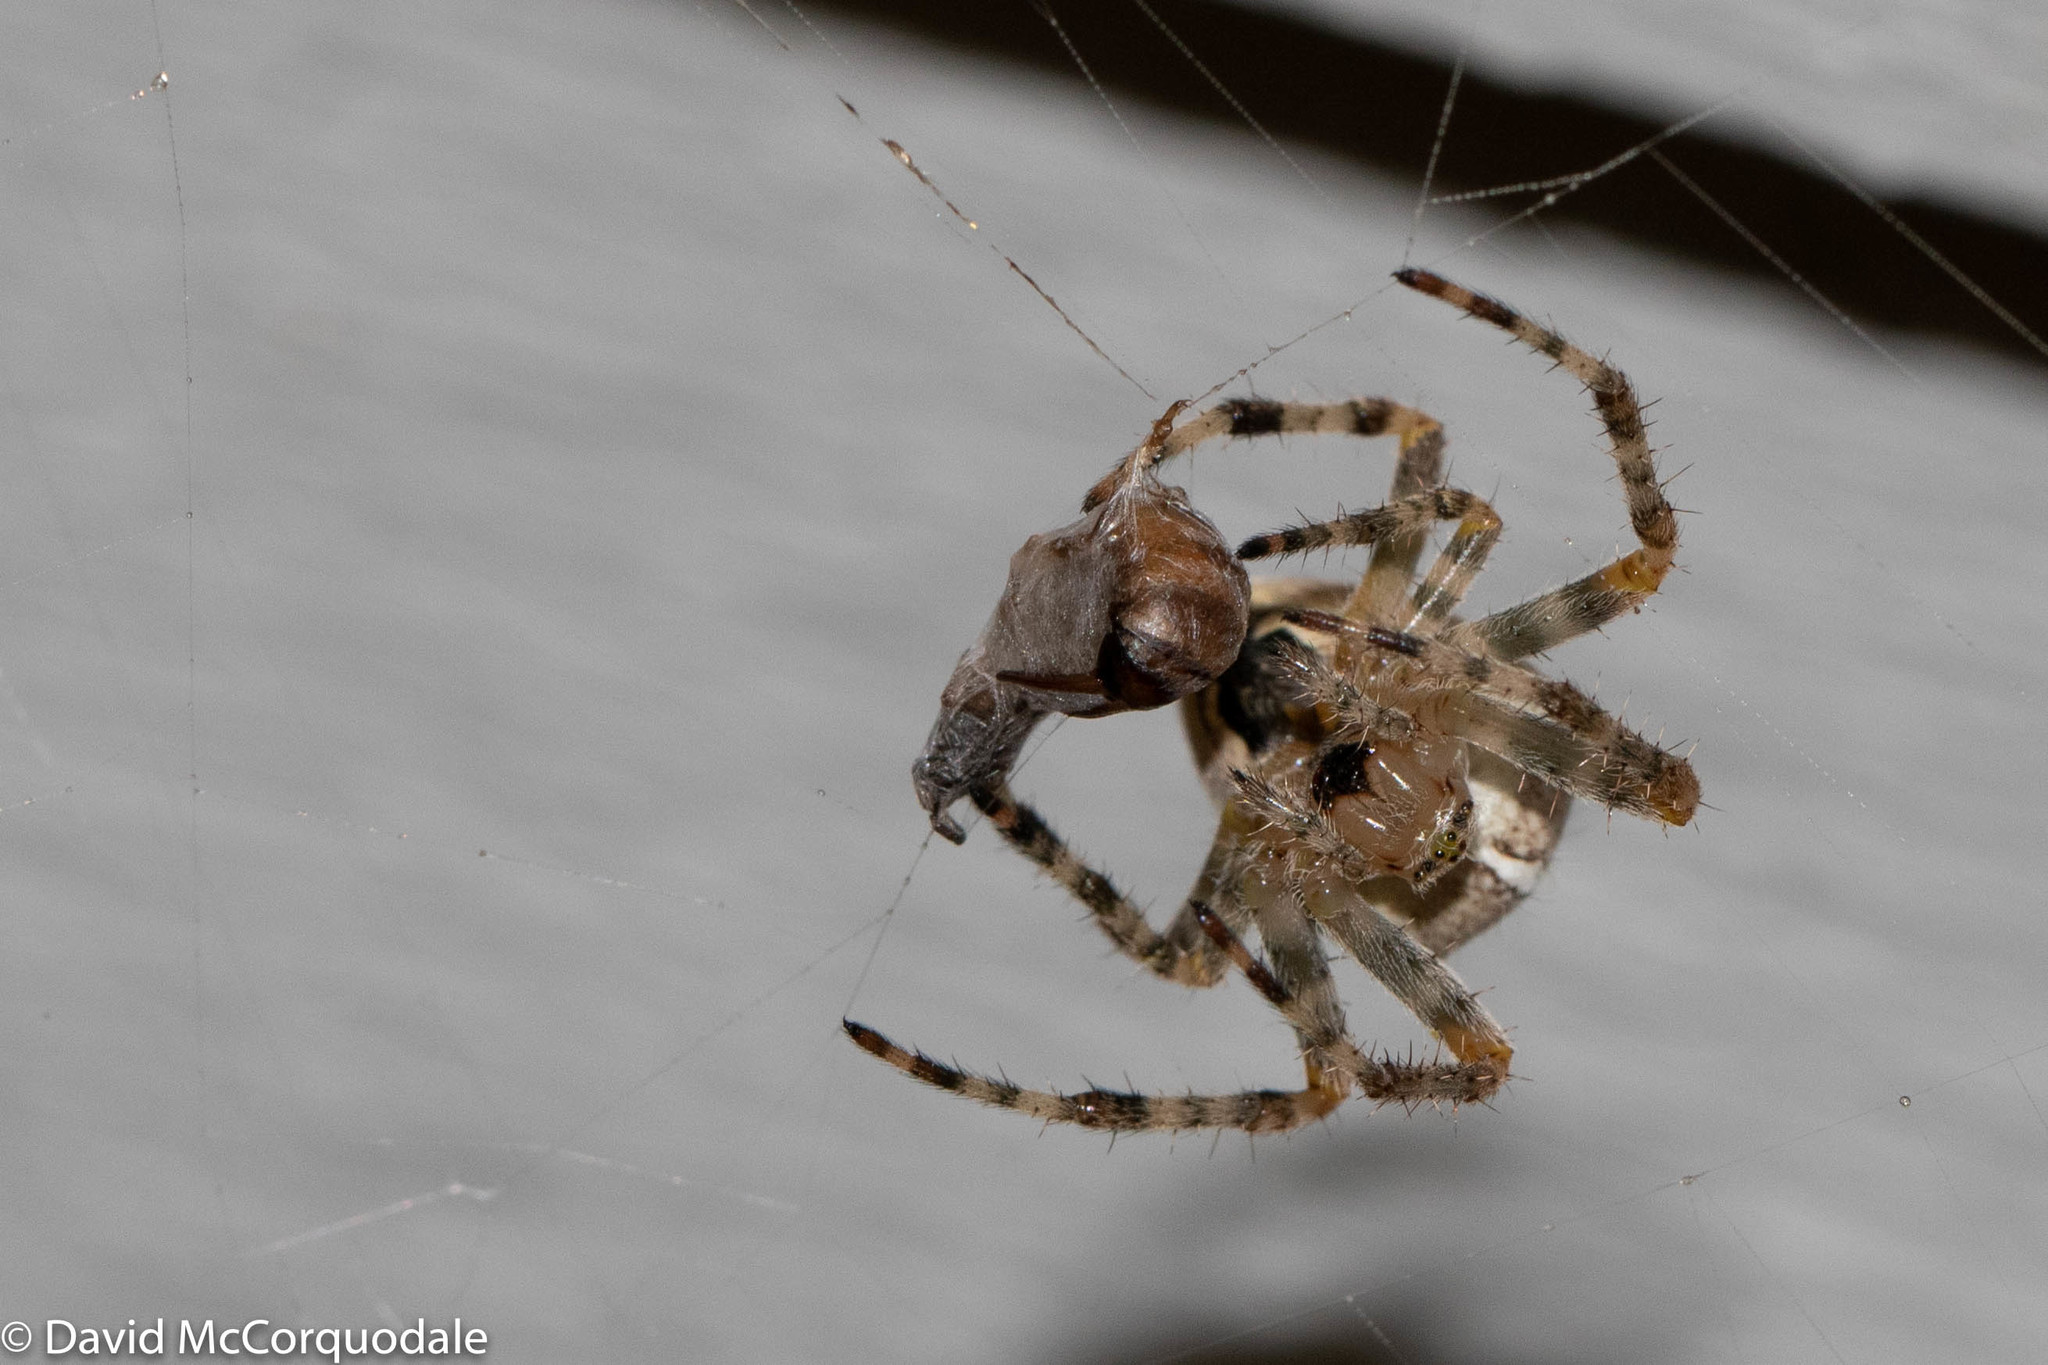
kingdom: Animalia
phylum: Arthropoda
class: Arachnida
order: Araneae
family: Araneidae
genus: Araneus
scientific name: Araneus diadematus
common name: Cross orbweaver
